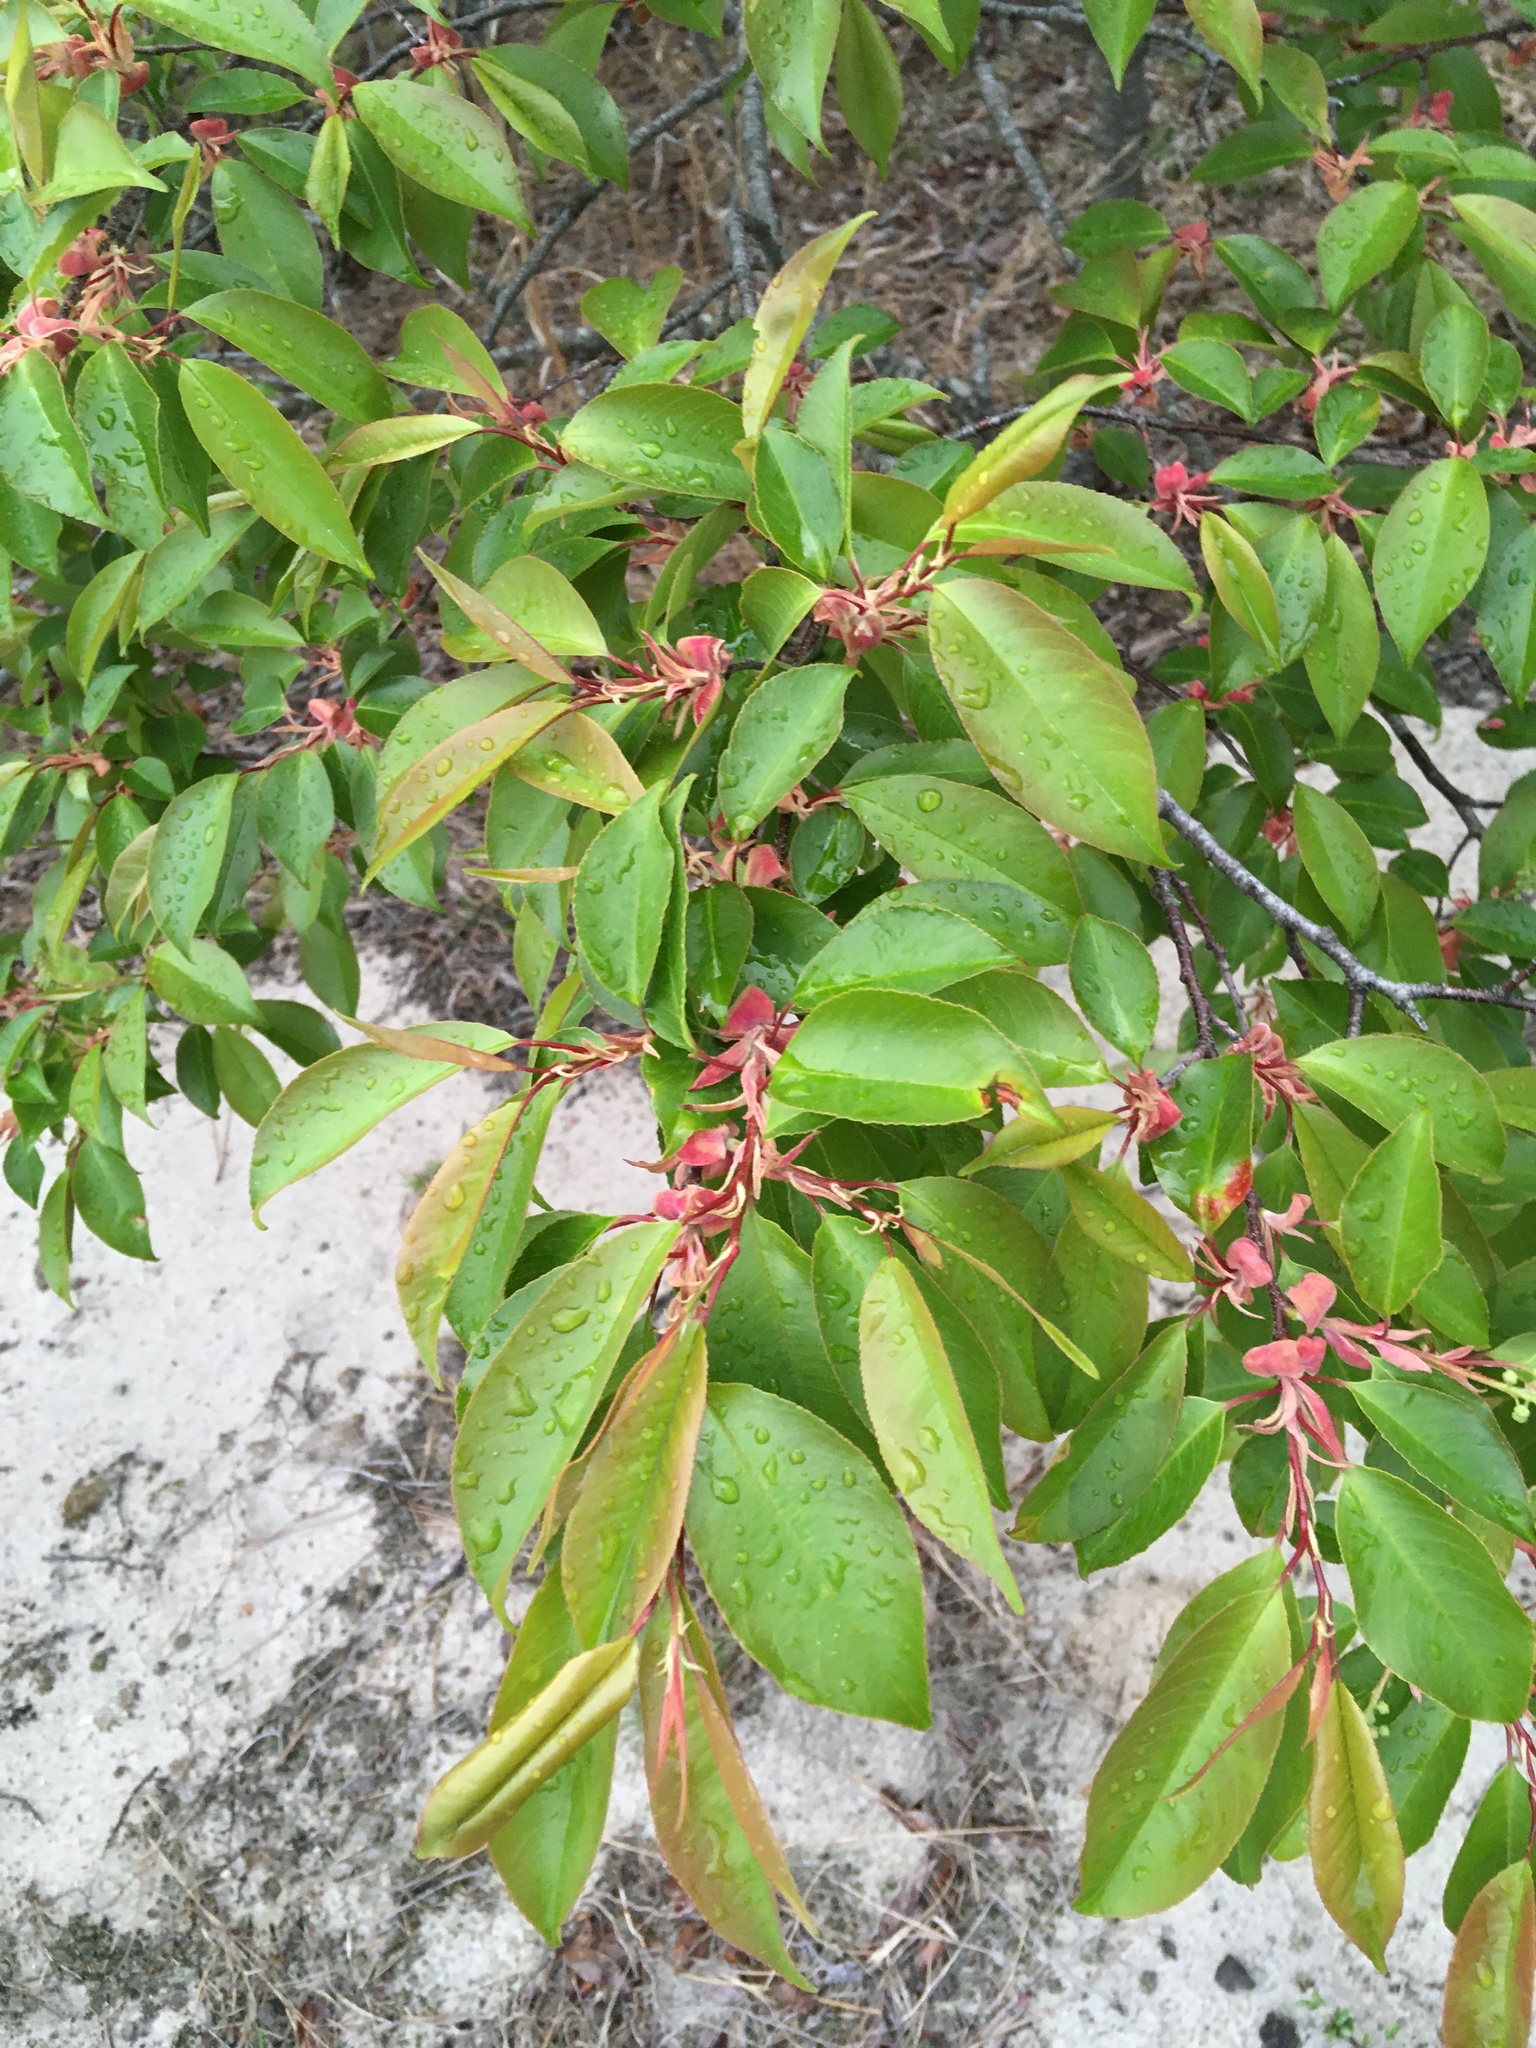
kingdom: Plantae
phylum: Tracheophyta
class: Magnoliopsida
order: Rosales
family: Rosaceae
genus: Prunus
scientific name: Prunus serotina
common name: Black cherry
